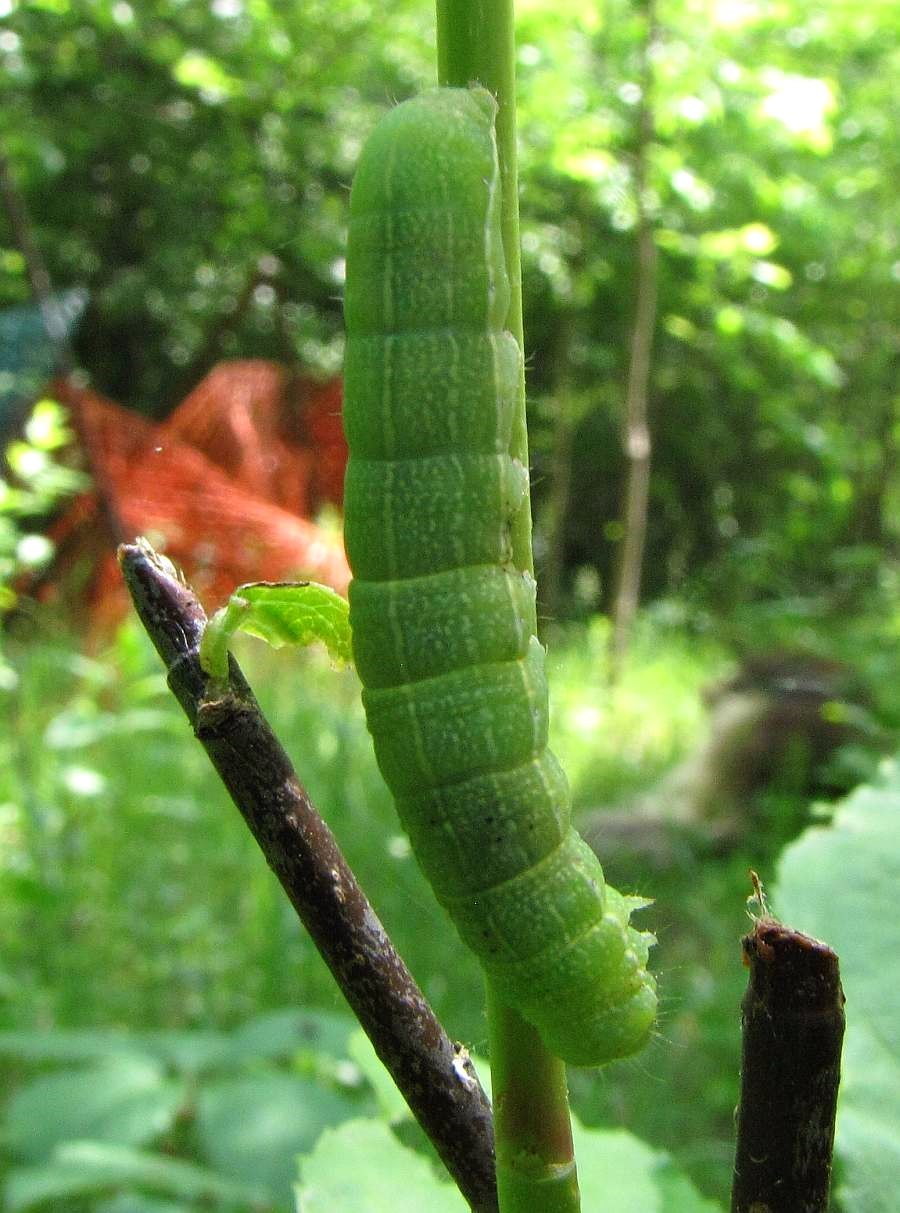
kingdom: Animalia
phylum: Arthropoda
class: Insecta
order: Lepidoptera
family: Noctuidae
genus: Orthosia
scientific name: Orthosia hibisci
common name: Green fruitworm
